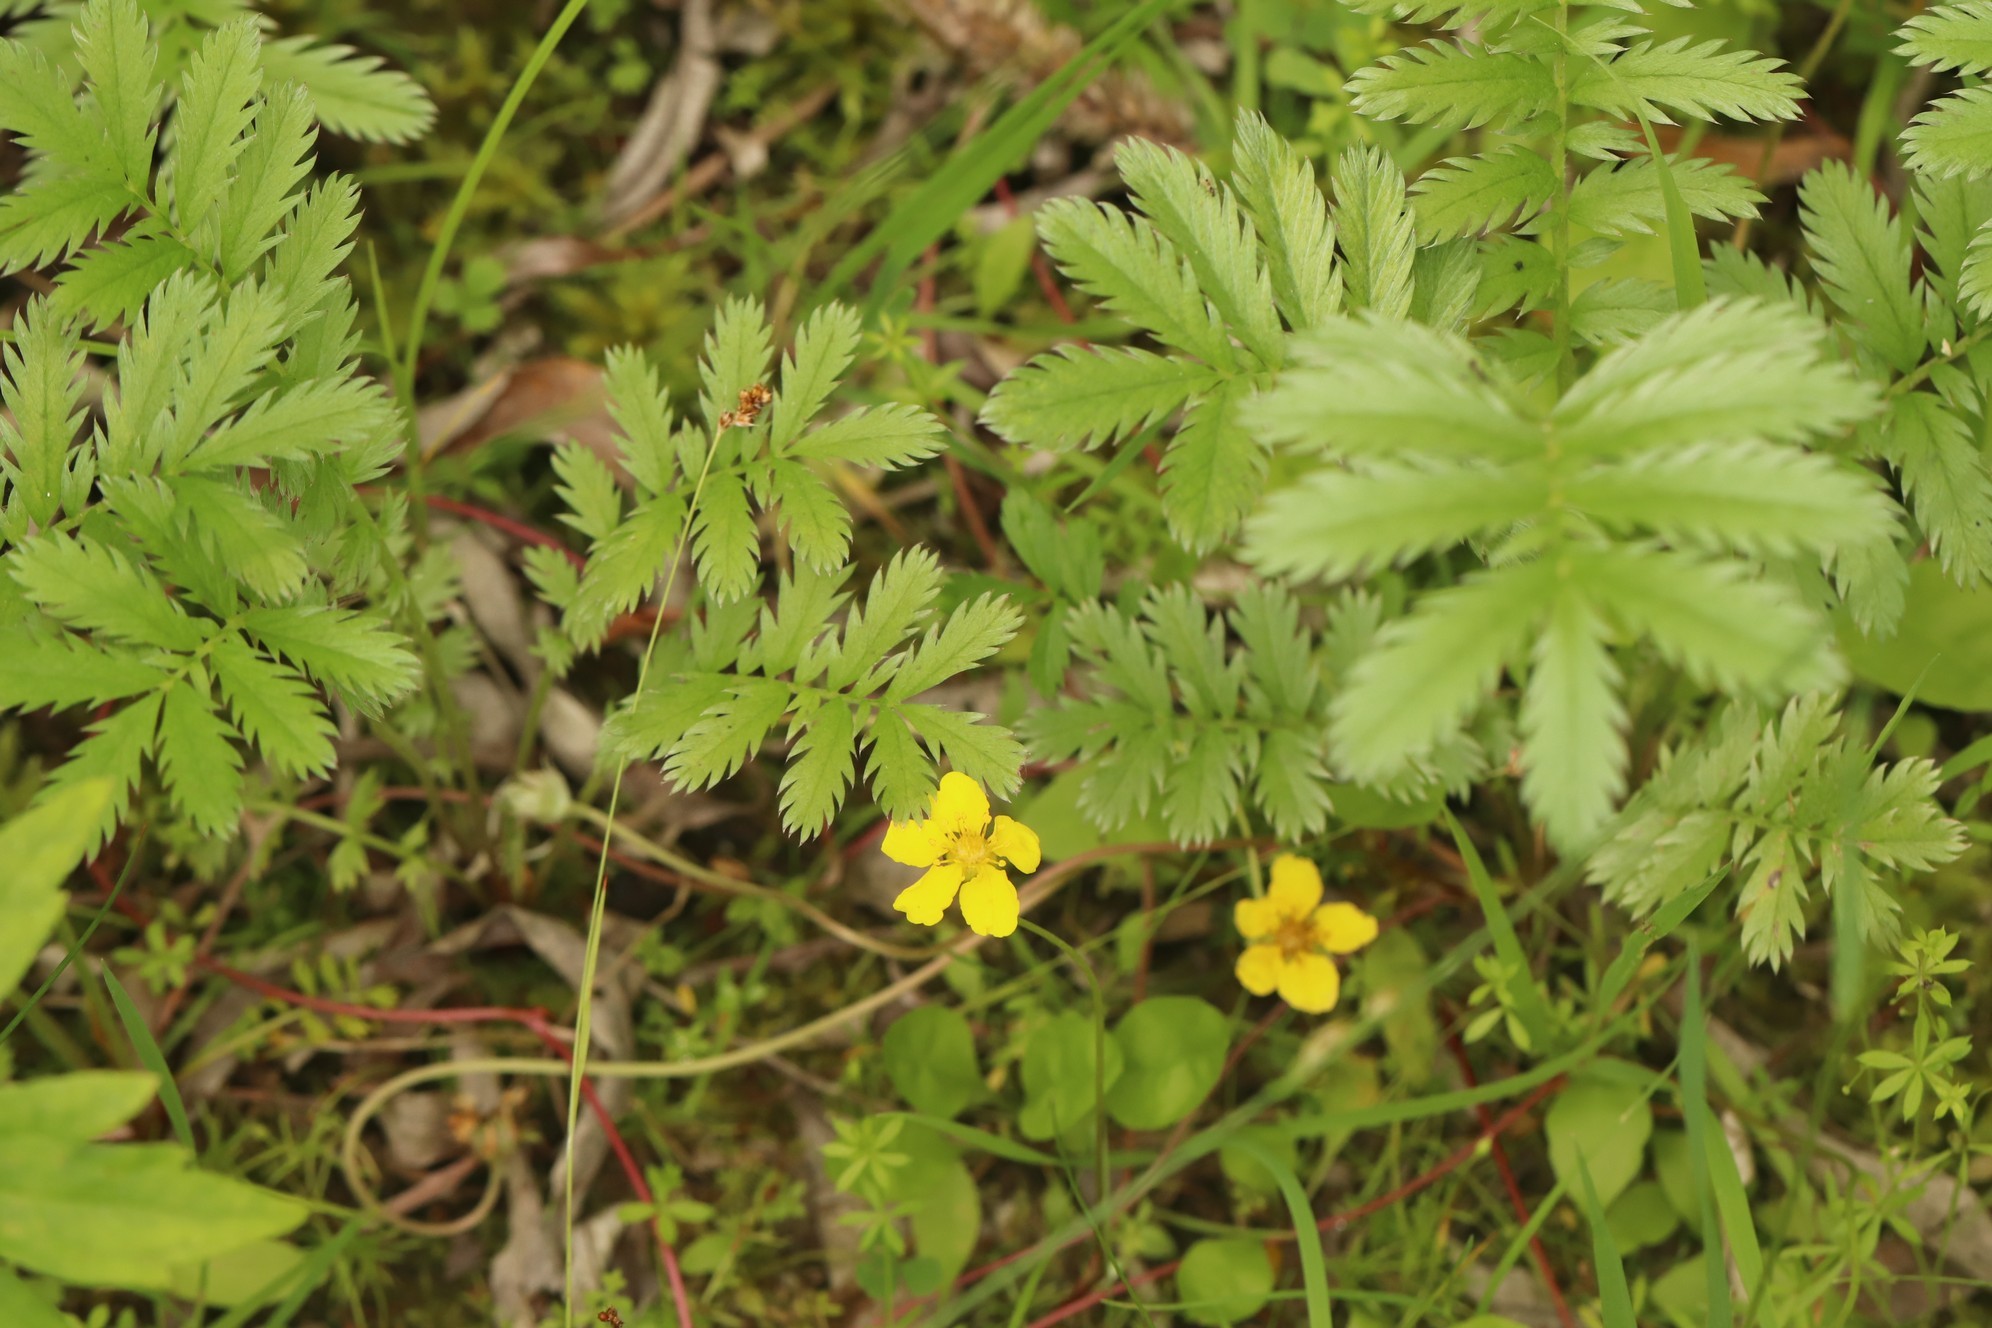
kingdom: Plantae
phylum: Tracheophyta
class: Magnoliopsida
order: Rosales
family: Rosaceae
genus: Argentina
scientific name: Argentina anserina
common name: Common silverweed
